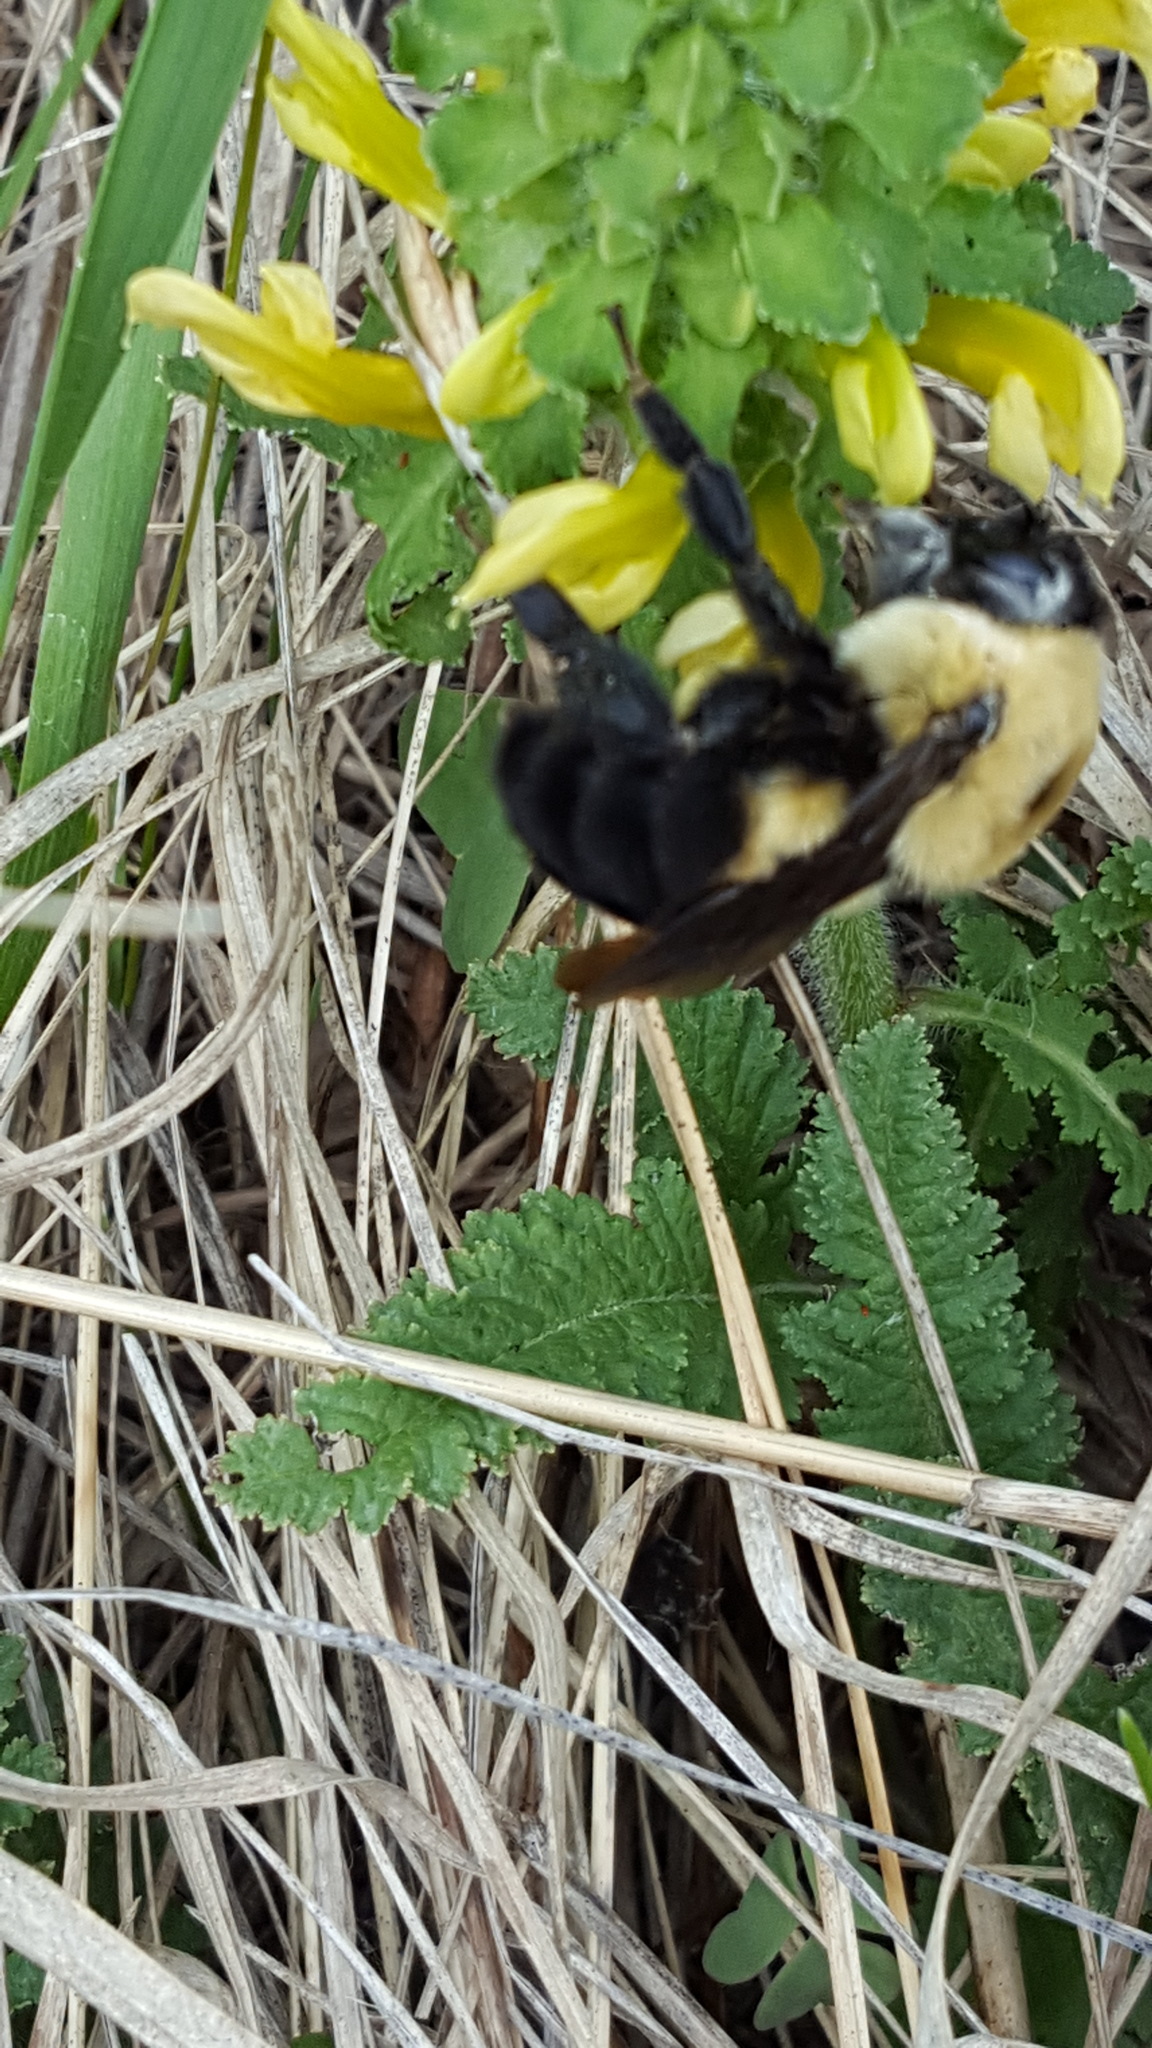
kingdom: Animalia
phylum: Arthropoda
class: Insecta
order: Hymenoptera
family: Apidae
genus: Bombus
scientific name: Bombus griseocollis
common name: Brown-belted bumble bee
